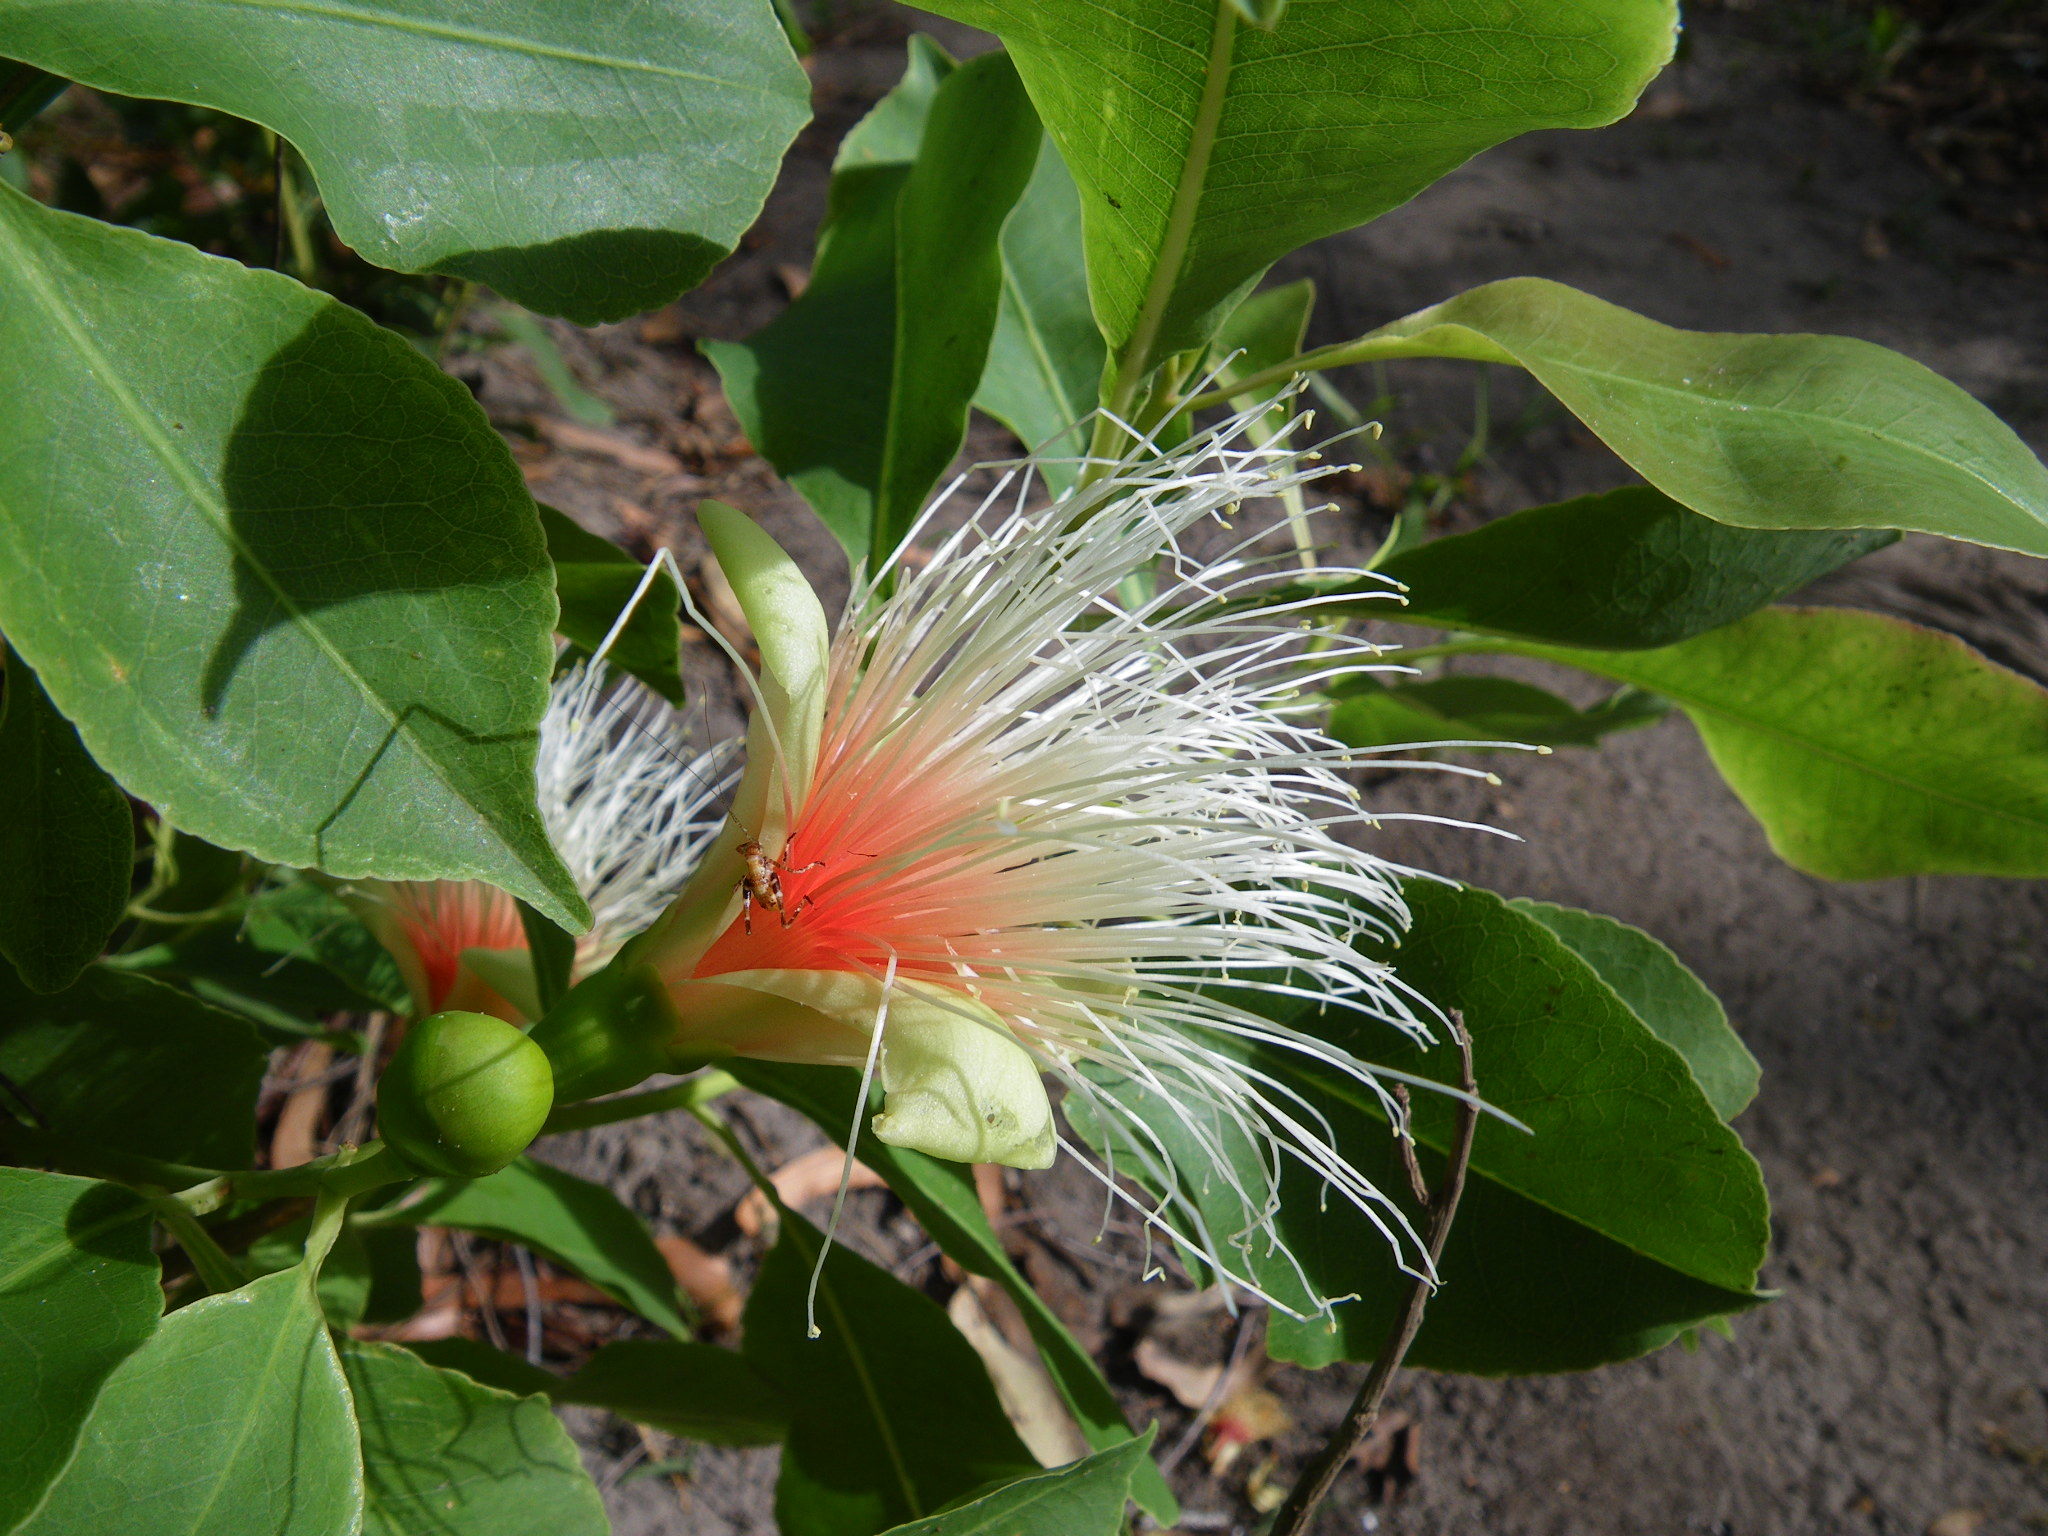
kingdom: Plantae
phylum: Tracheophyta
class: Magnoliopsida
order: Ericales
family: Lecythidaceae
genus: Planchonia
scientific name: Planchonia careya
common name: Cockatoo-apple
